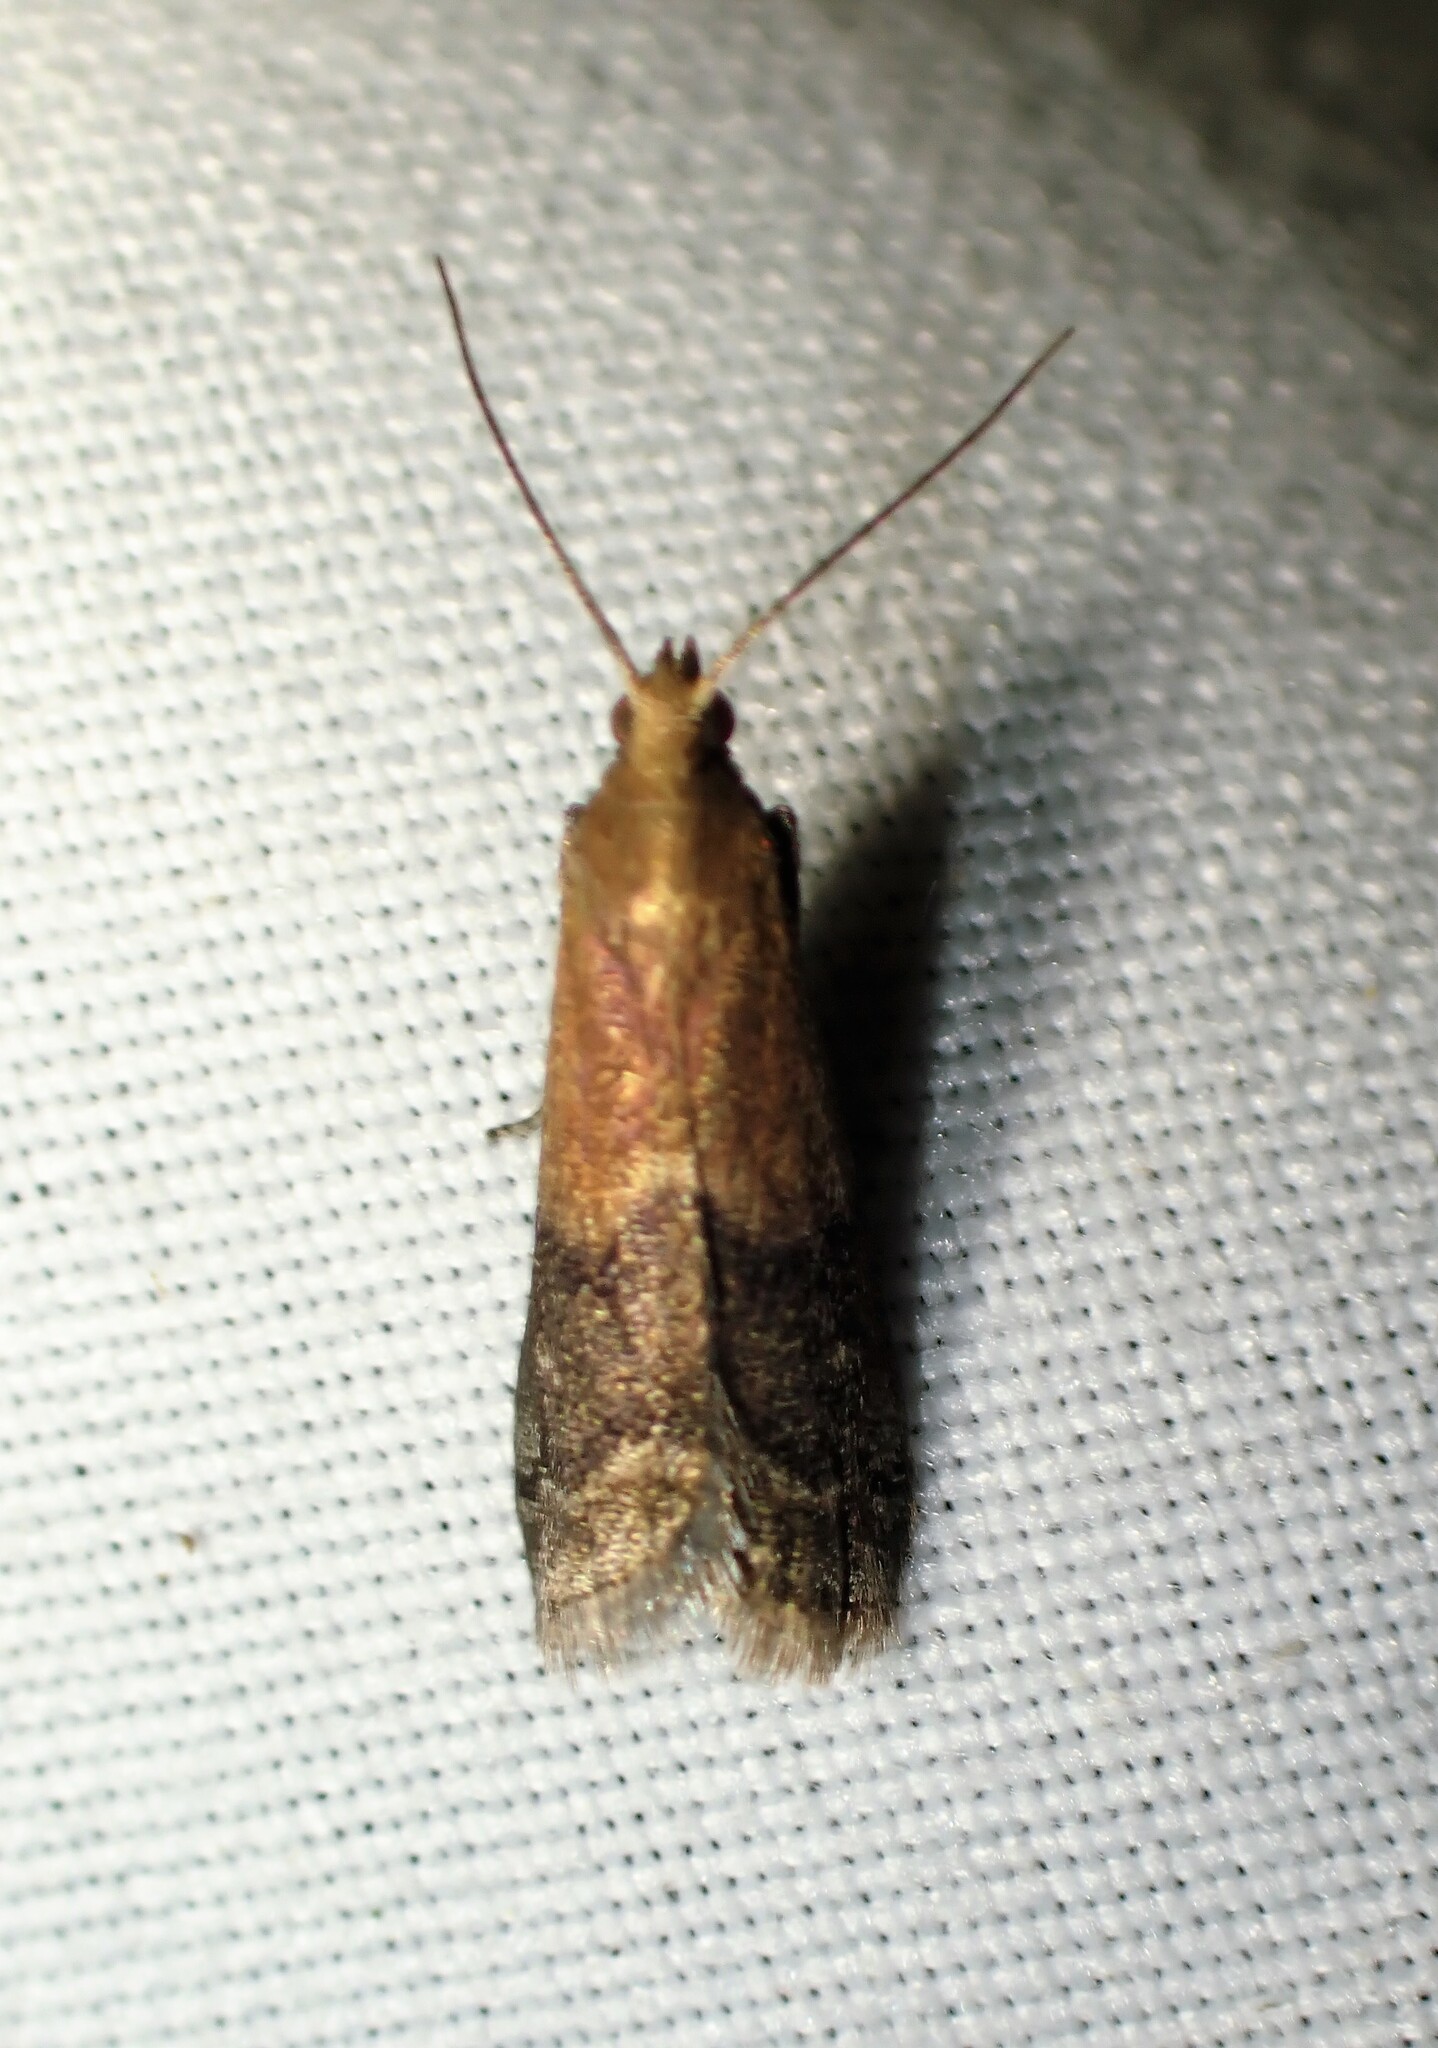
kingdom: Animalia
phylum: Arthropoda
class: Insecta
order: Lepidoptera
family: Pyralidae
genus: Eulogia
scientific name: Eulogia ochrifrontella
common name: Broad-banded eulogia moth
